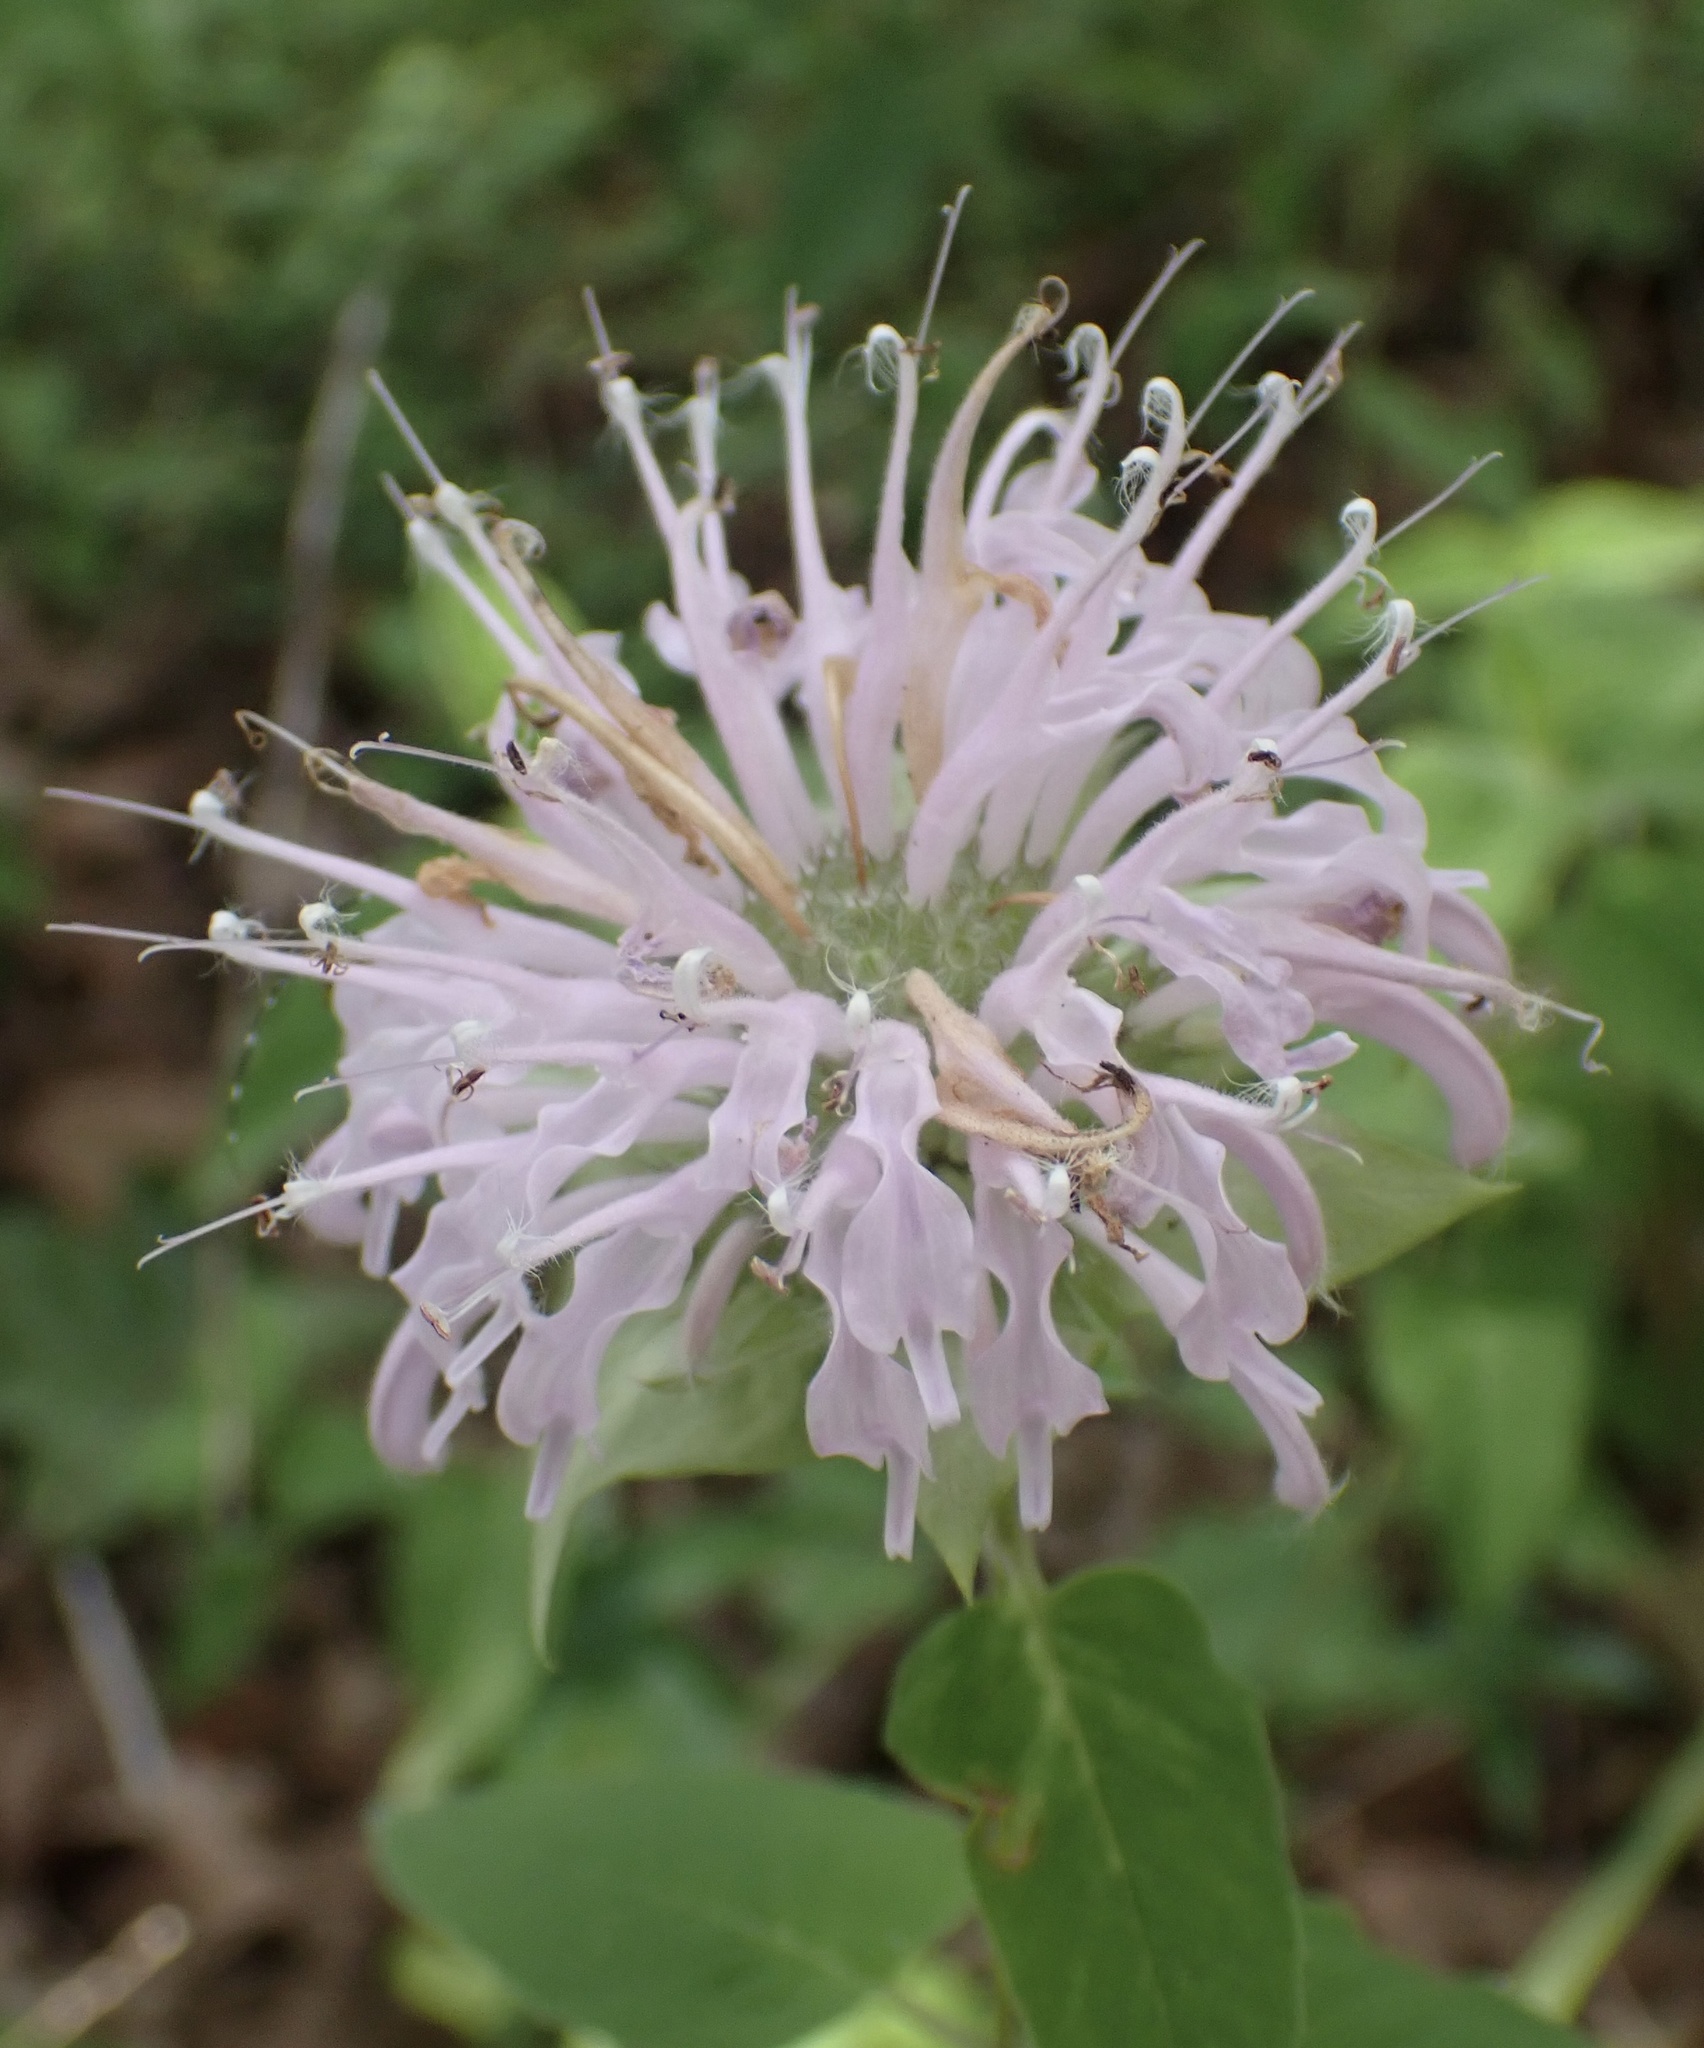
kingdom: Plantae
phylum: Tracheophyta
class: Magnoliopsida
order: Lamiales
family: Lamiaceae
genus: Monarda
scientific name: Monarda fistulosa
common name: Purple beebalm
